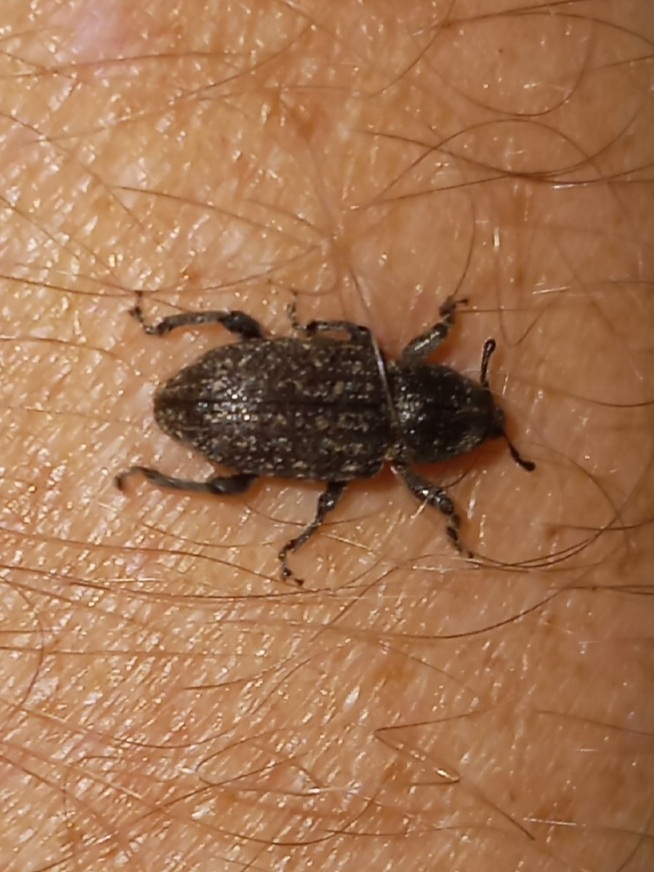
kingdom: Animalia
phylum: Arthropoda
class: Insecta
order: Coleoptera
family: Curculionidae
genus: Pachylobius
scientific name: Pachylobius picivorus
